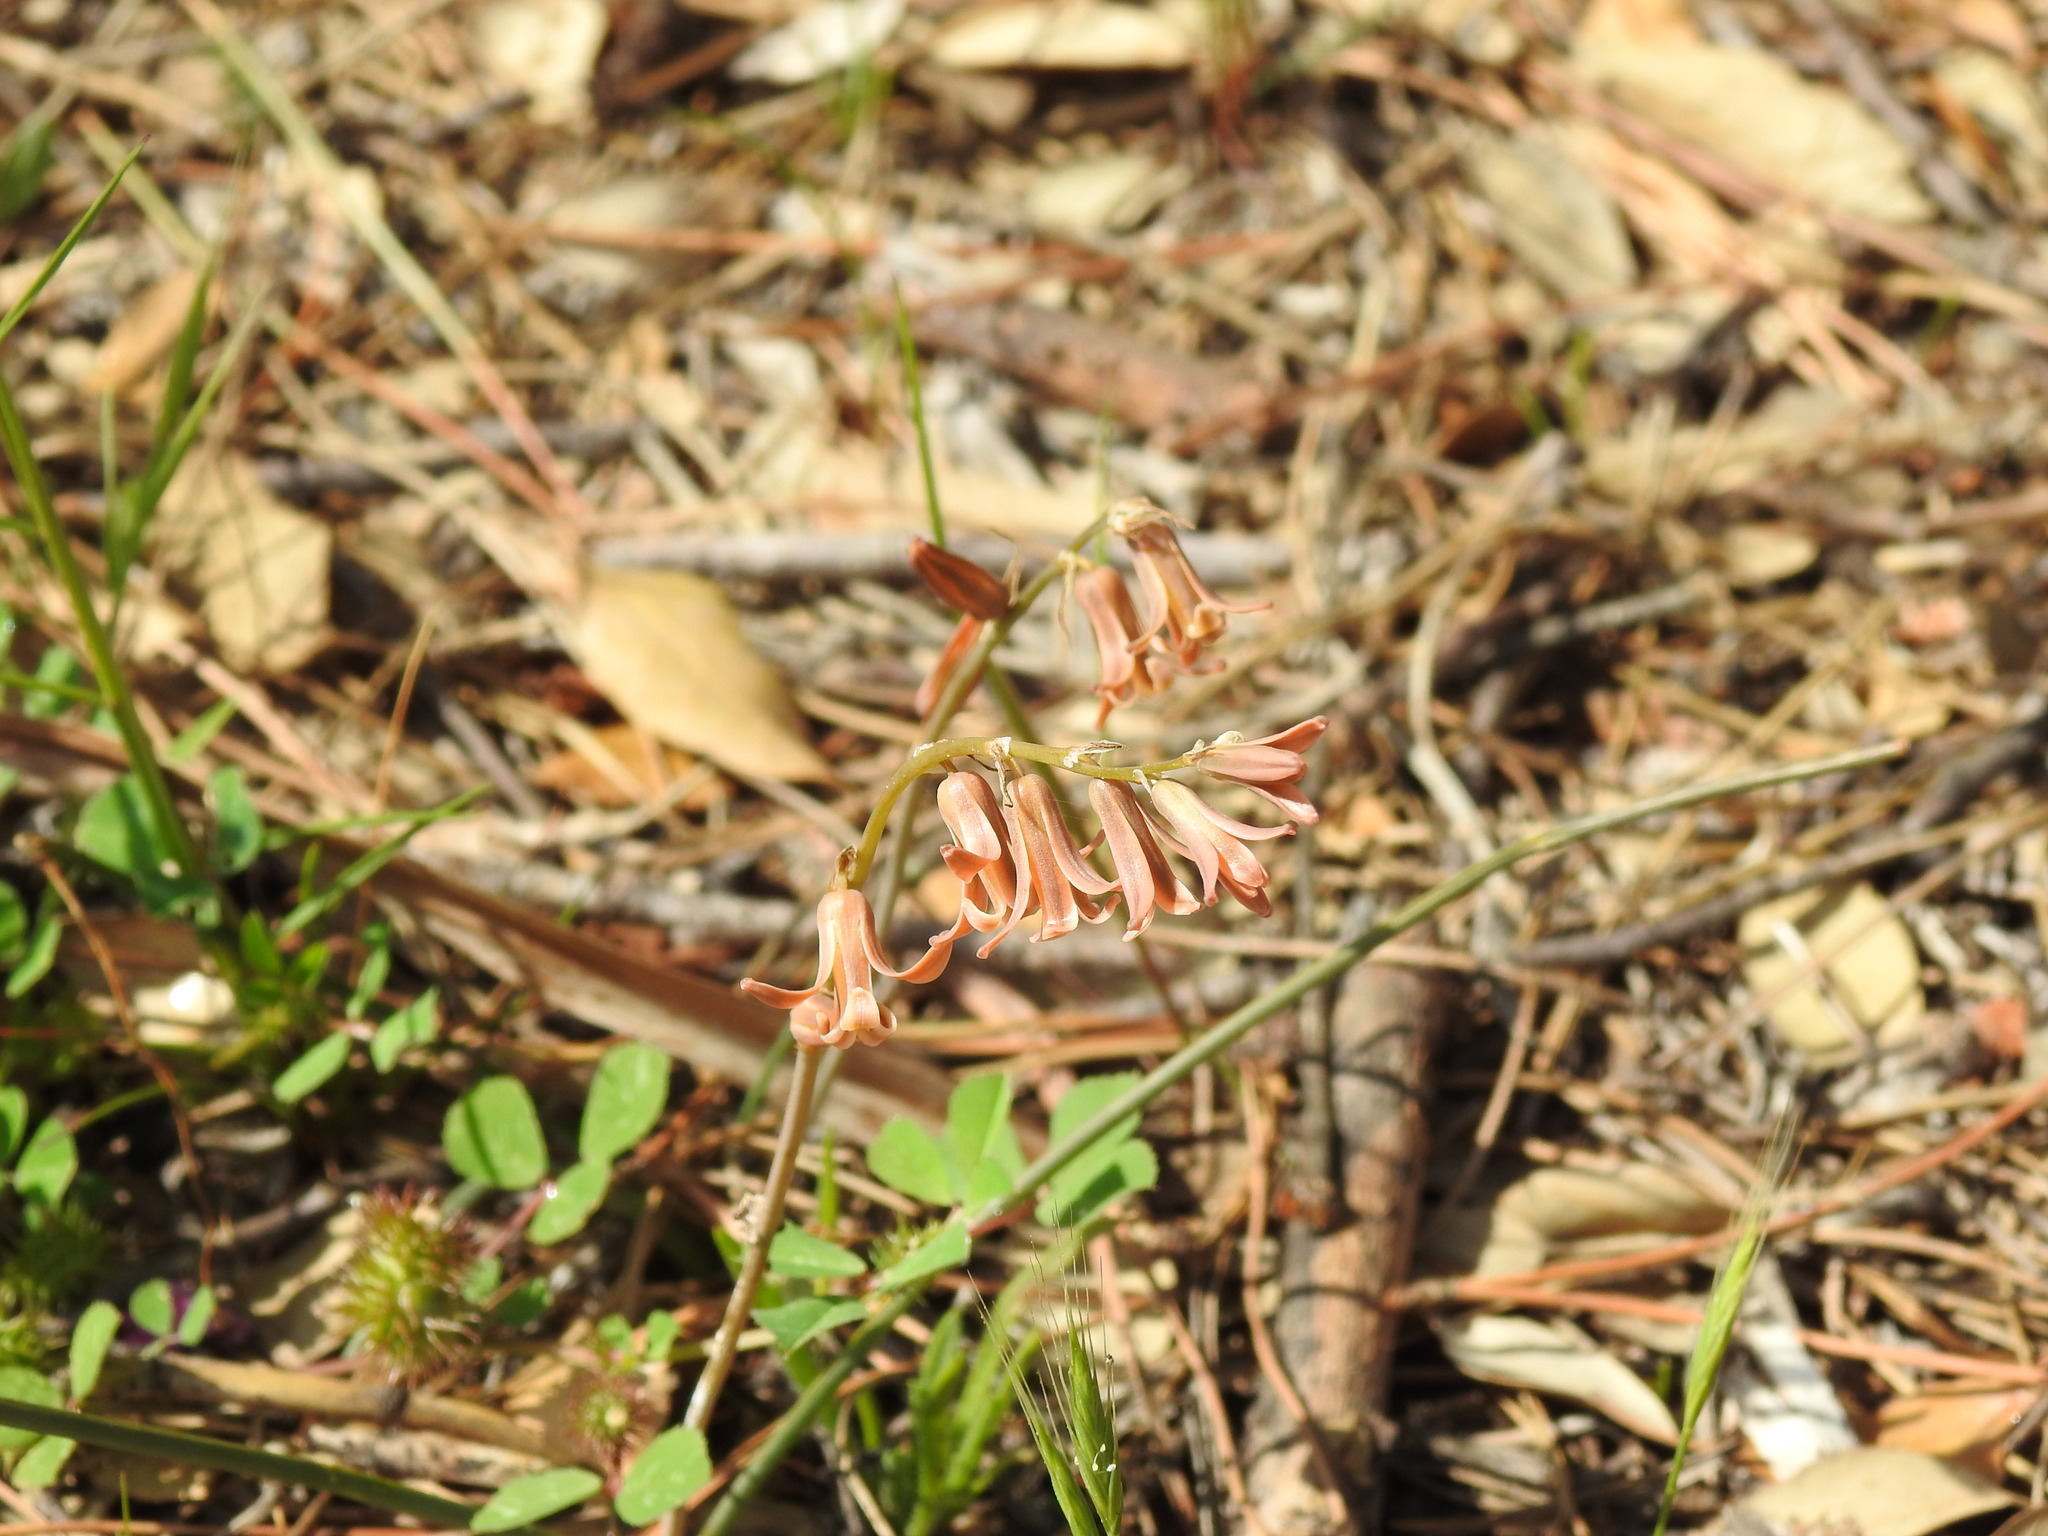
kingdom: Plantae
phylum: Tracheophyta
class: Liliopsida
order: Asparagales
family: Asparagaceae
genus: Dipcadi
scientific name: Dipcadi serotinum
